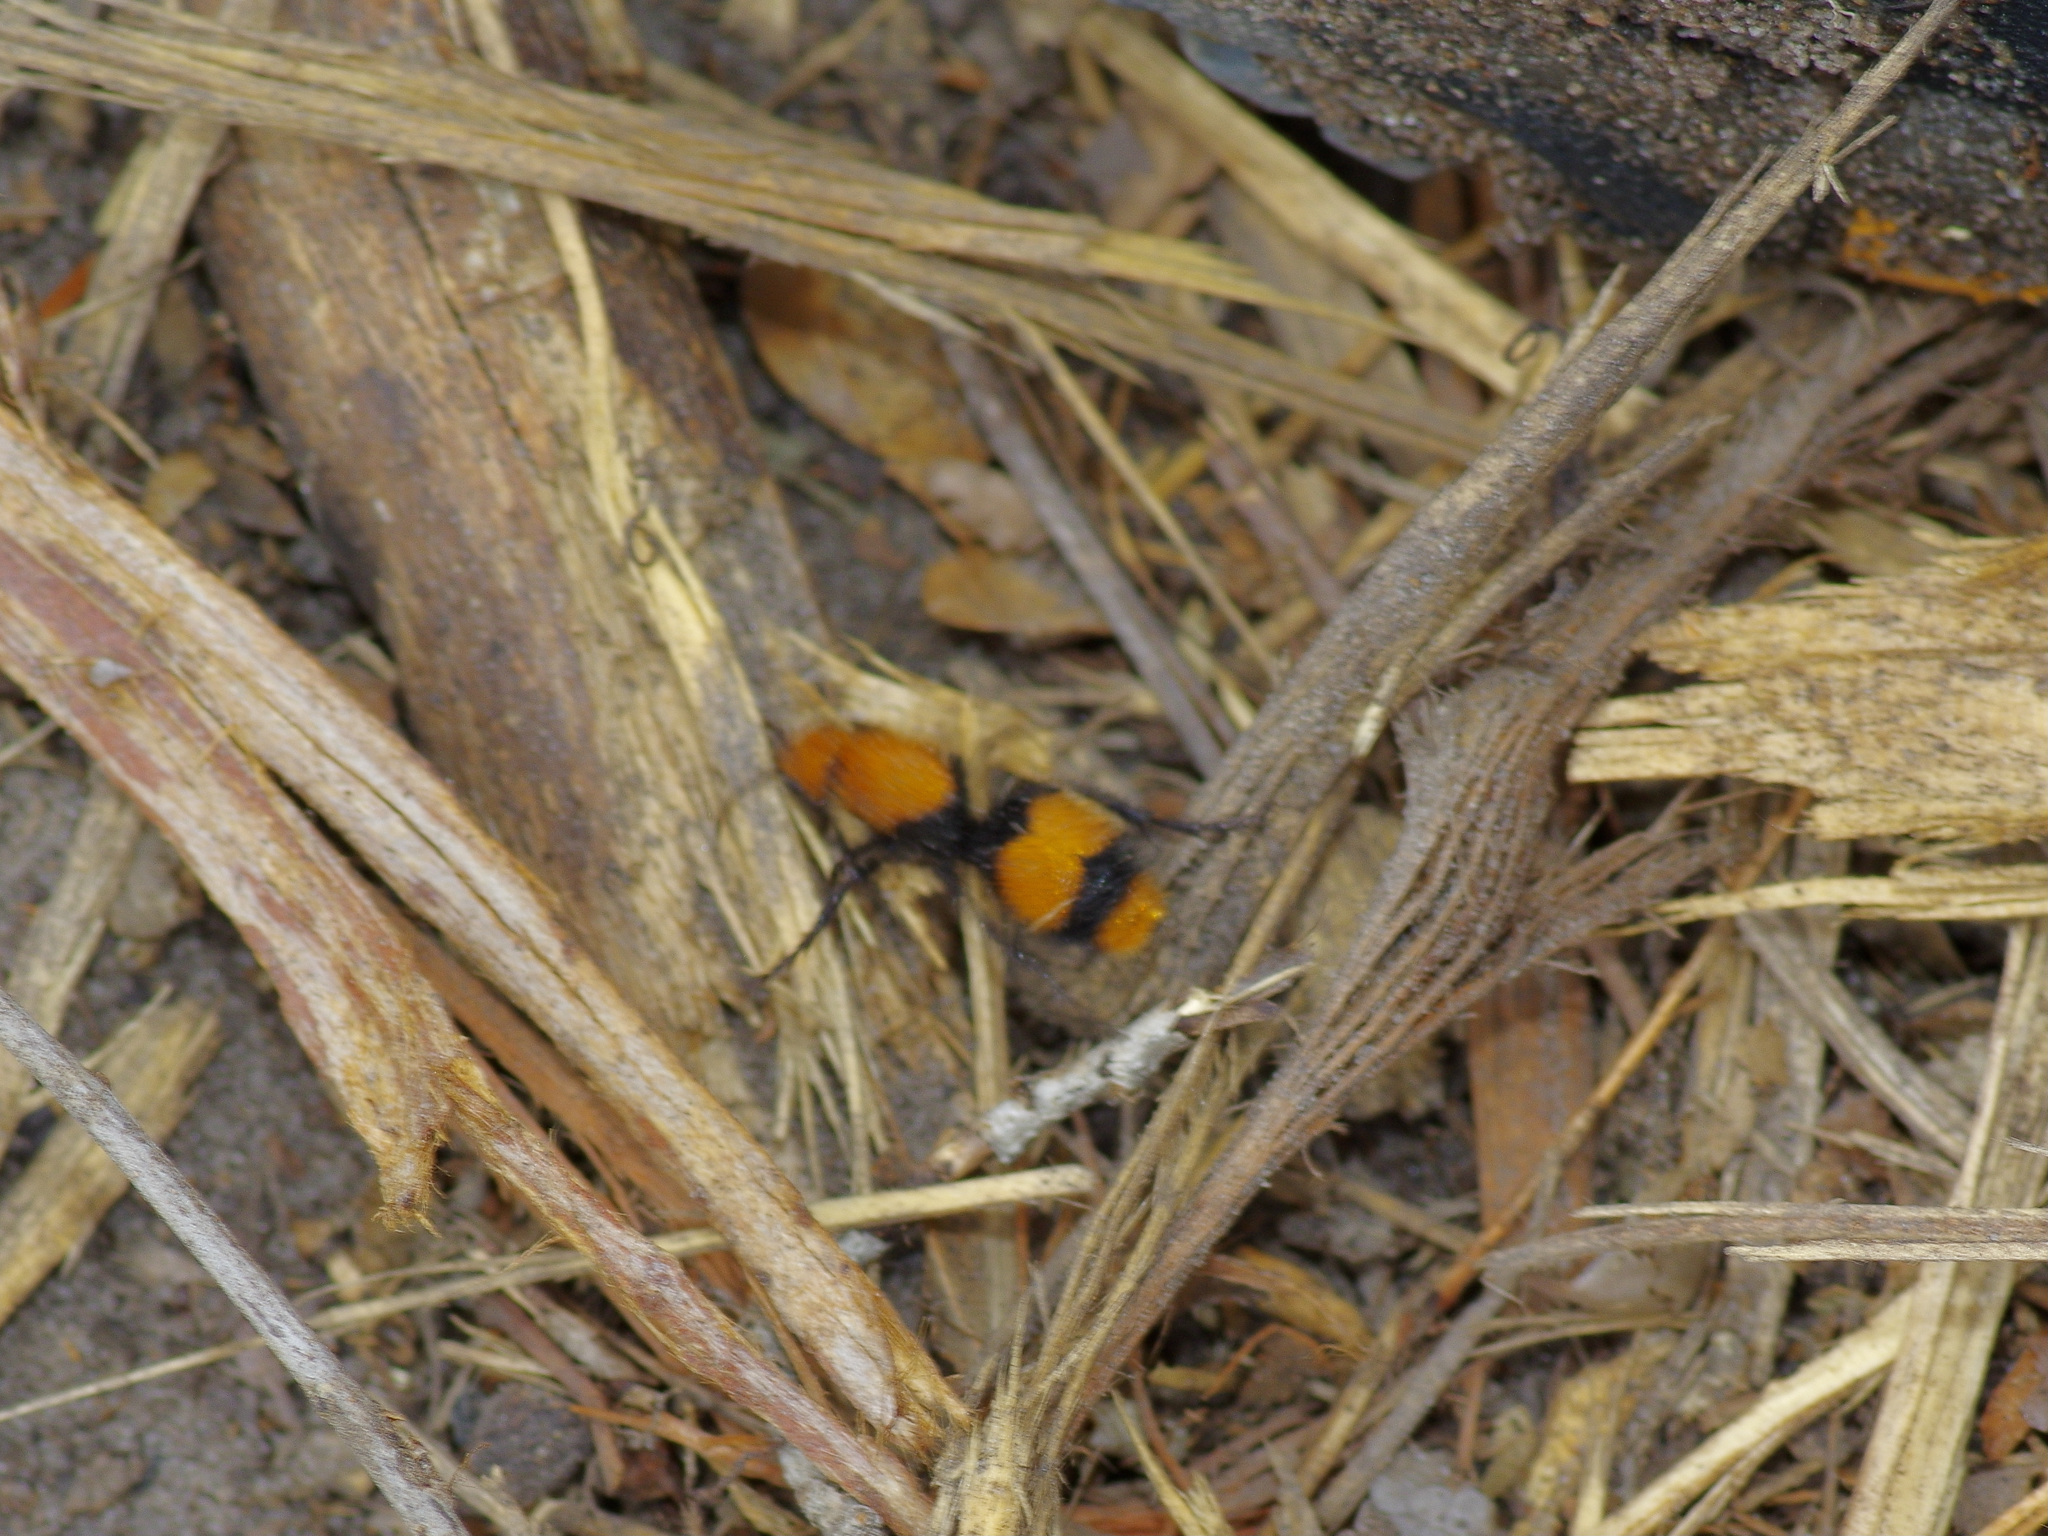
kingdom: Animalia
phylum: Arthropoda
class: Insecta
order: Hymenoptera
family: Mutillidae
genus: Dasymutilla
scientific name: Dasymutilla occidentalis
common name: Common eastern velvet ant
